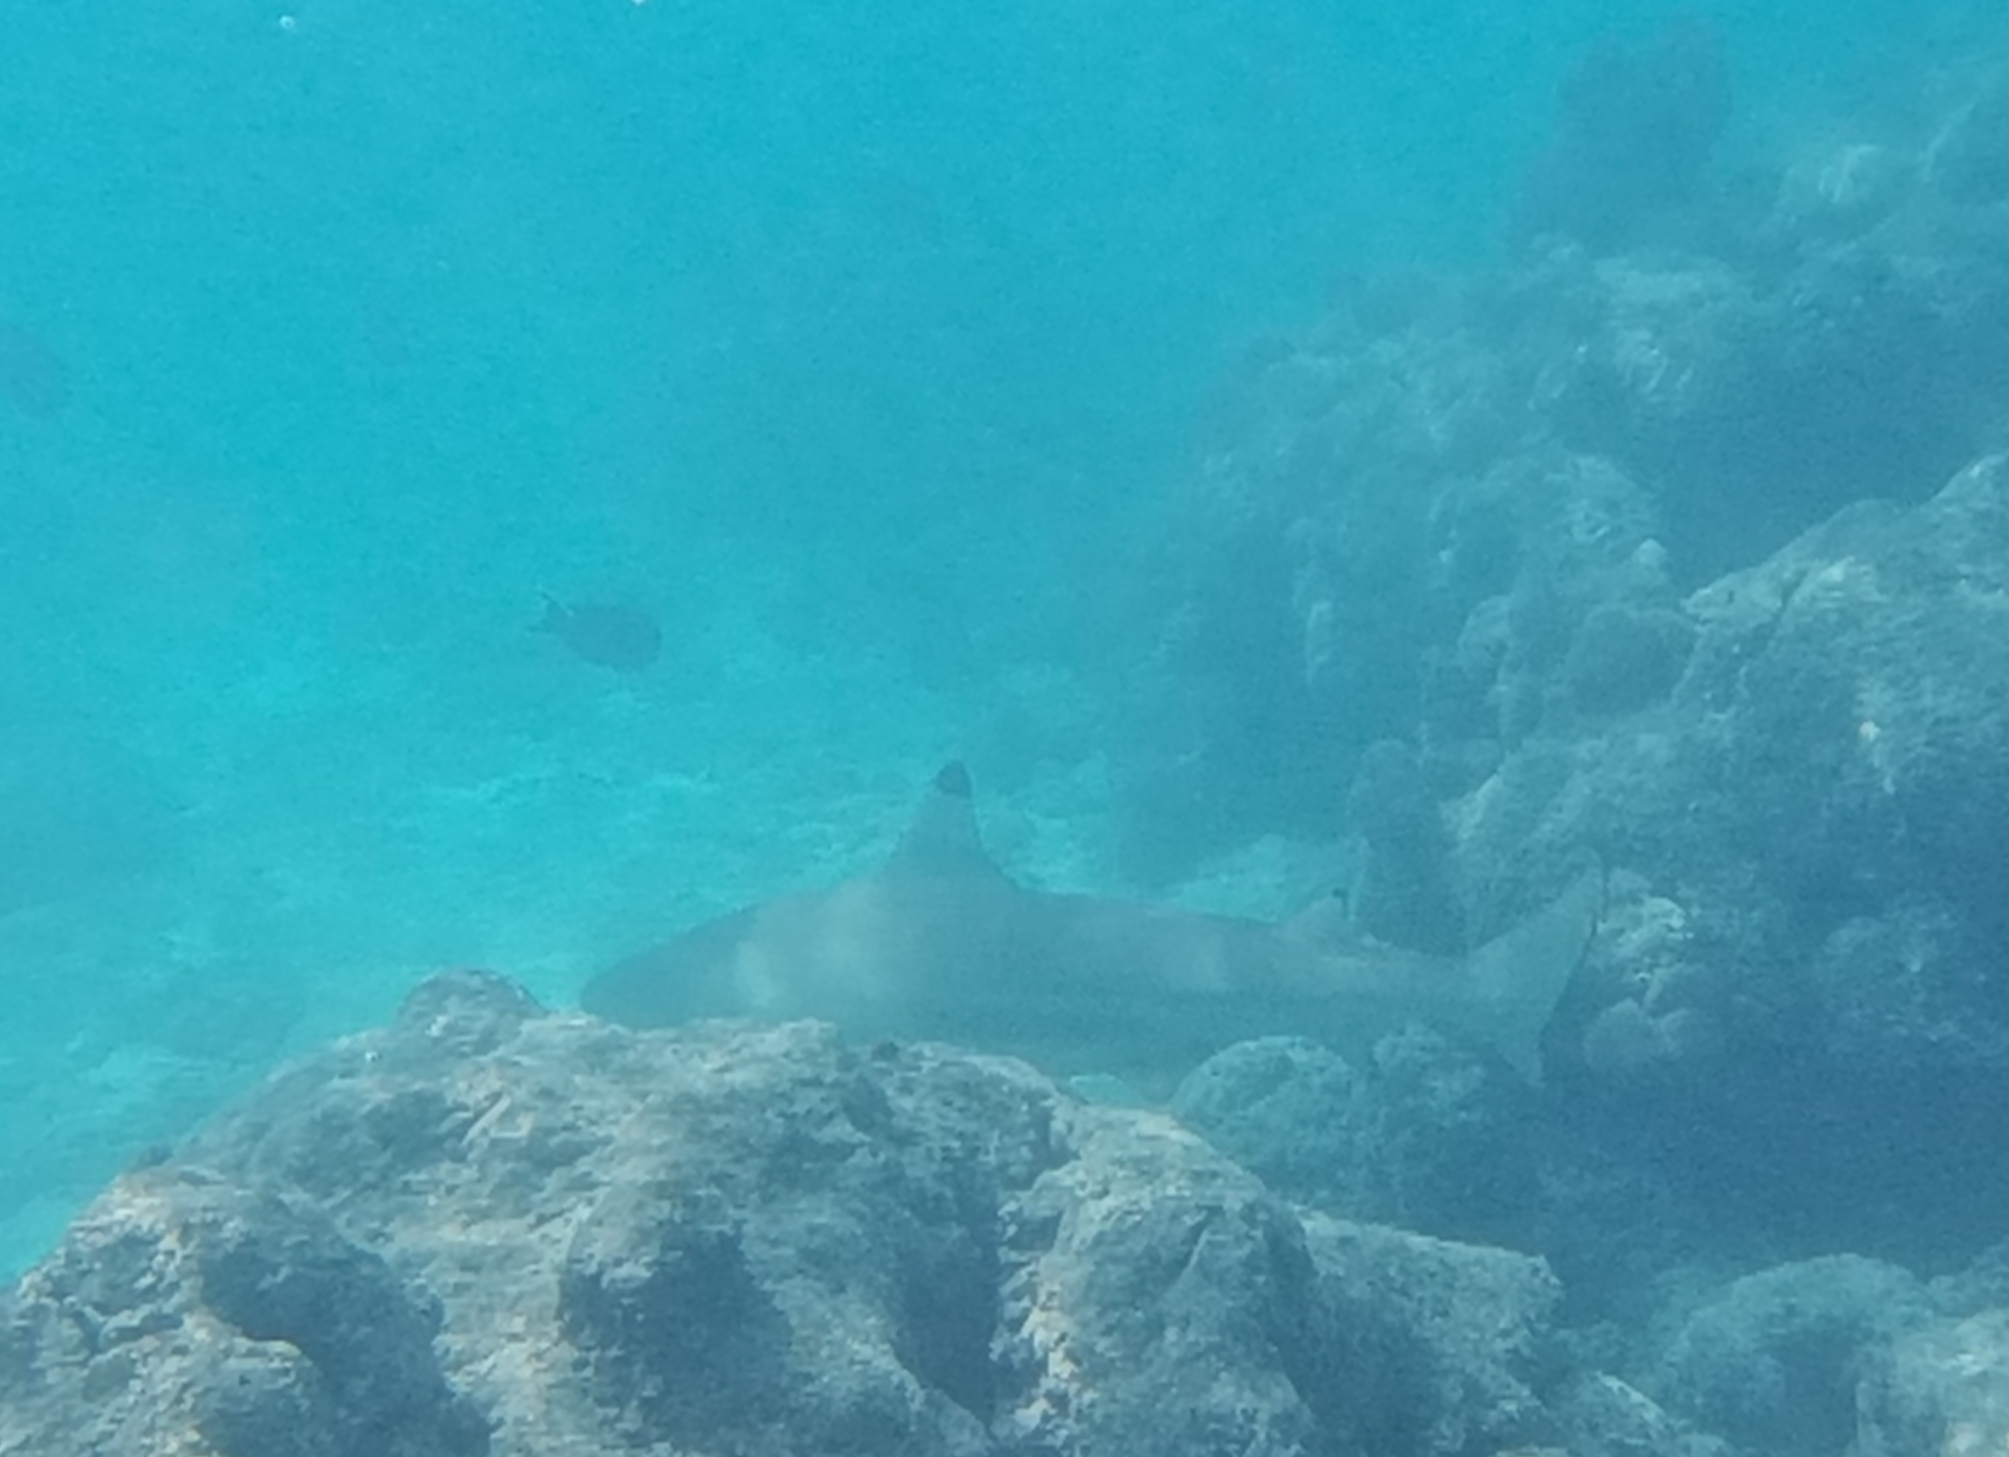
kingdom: Animalia
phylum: Chordata
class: Elasmobranchii
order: Carcharhiniformes
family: Carcharhinidae
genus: Carcharhinus
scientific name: Carcharhinus melanopterus
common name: Blacktip reef shark
